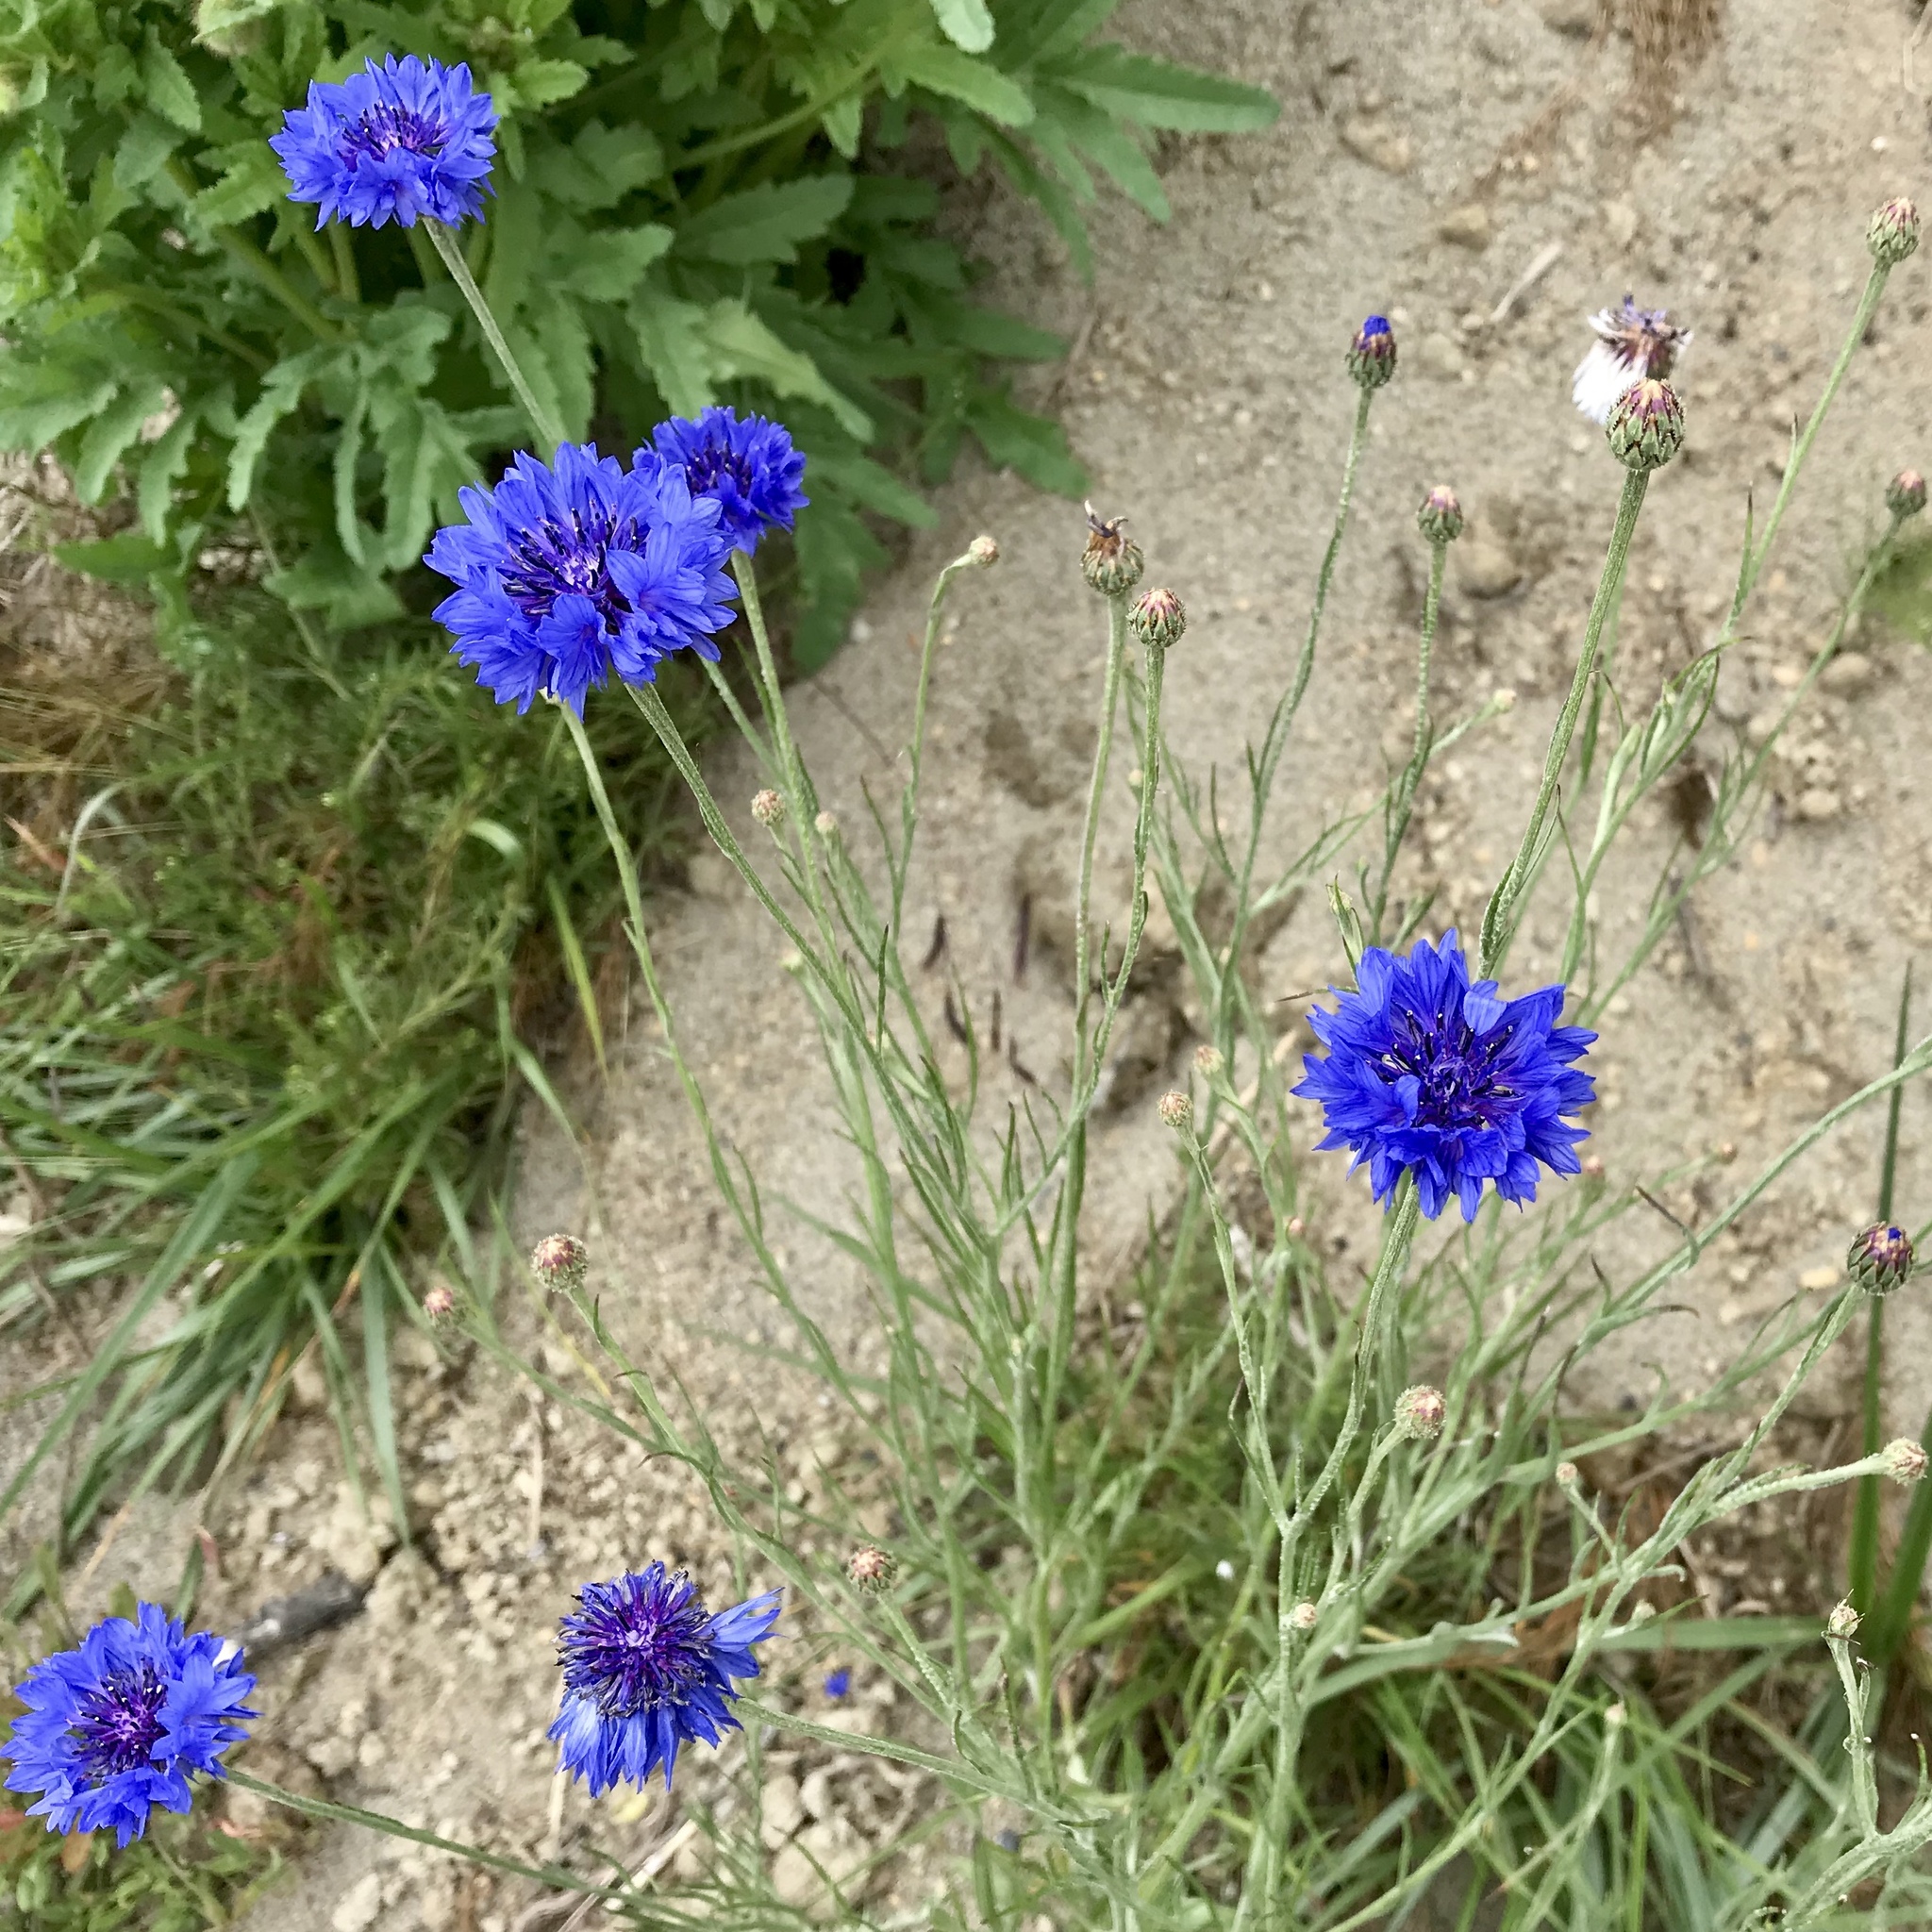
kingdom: Plantae
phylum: Tracheophyta
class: Magnoliopsida
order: Asterales
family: Asteraceae
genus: Centaurea
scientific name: Centaurea cyanus
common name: Cornflower
